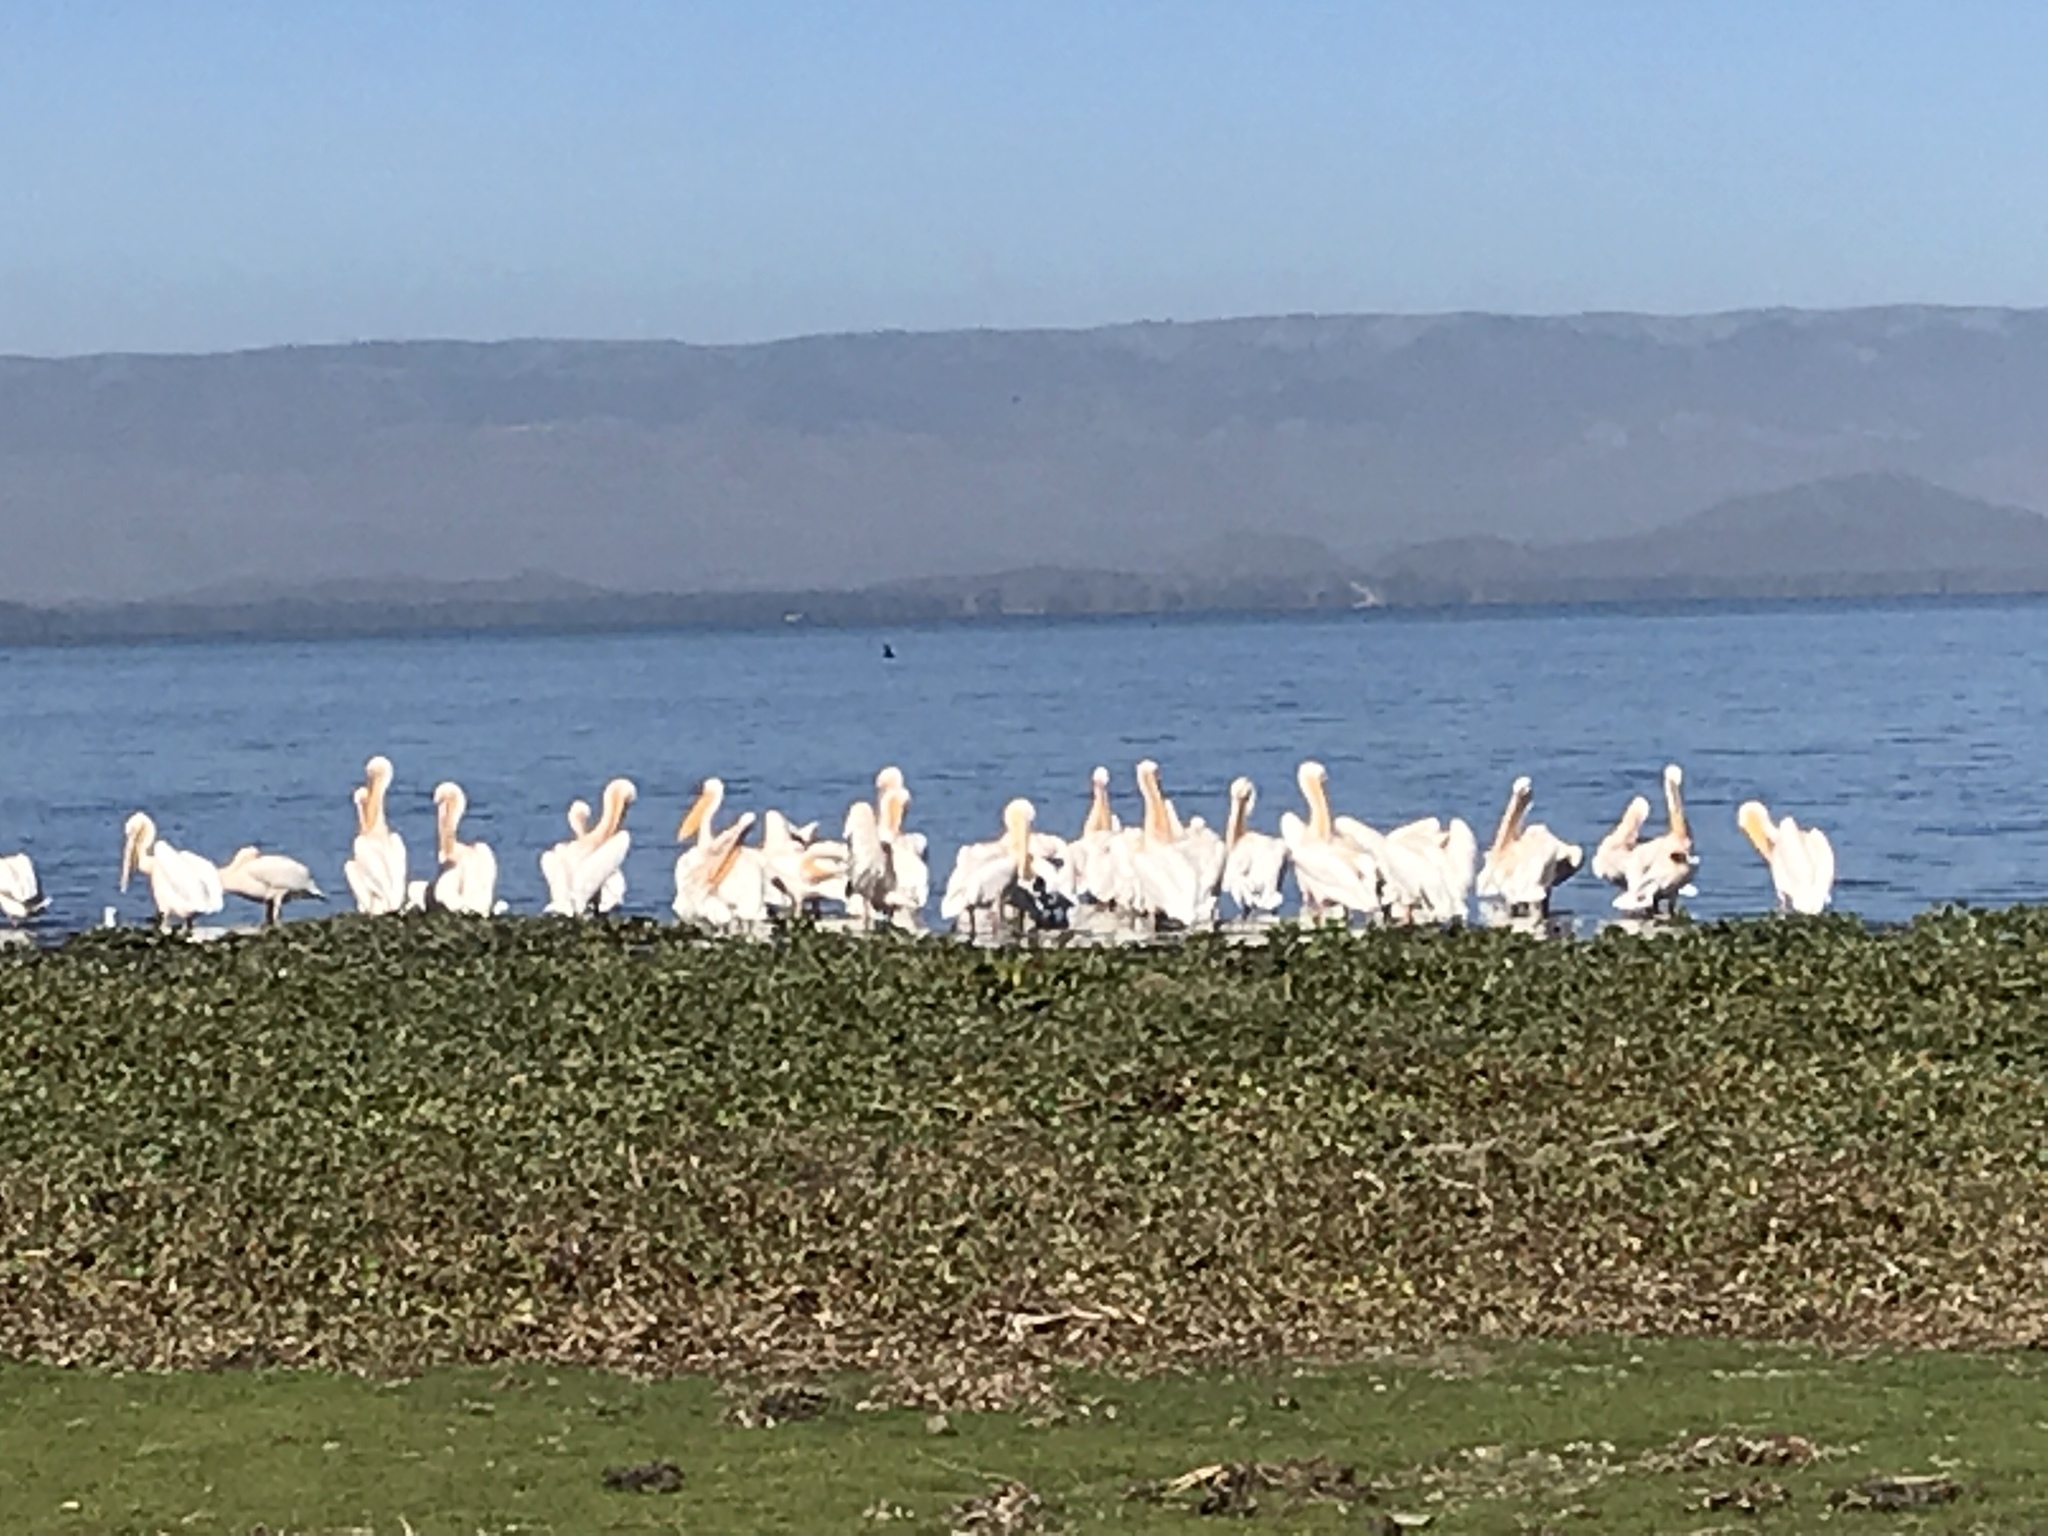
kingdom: Animalia
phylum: Chordata
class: Aves
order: Pelecaniformes
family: Pelecanidae
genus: Pelecanus
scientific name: Pelecanus onocrotalus
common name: Great white pelican
